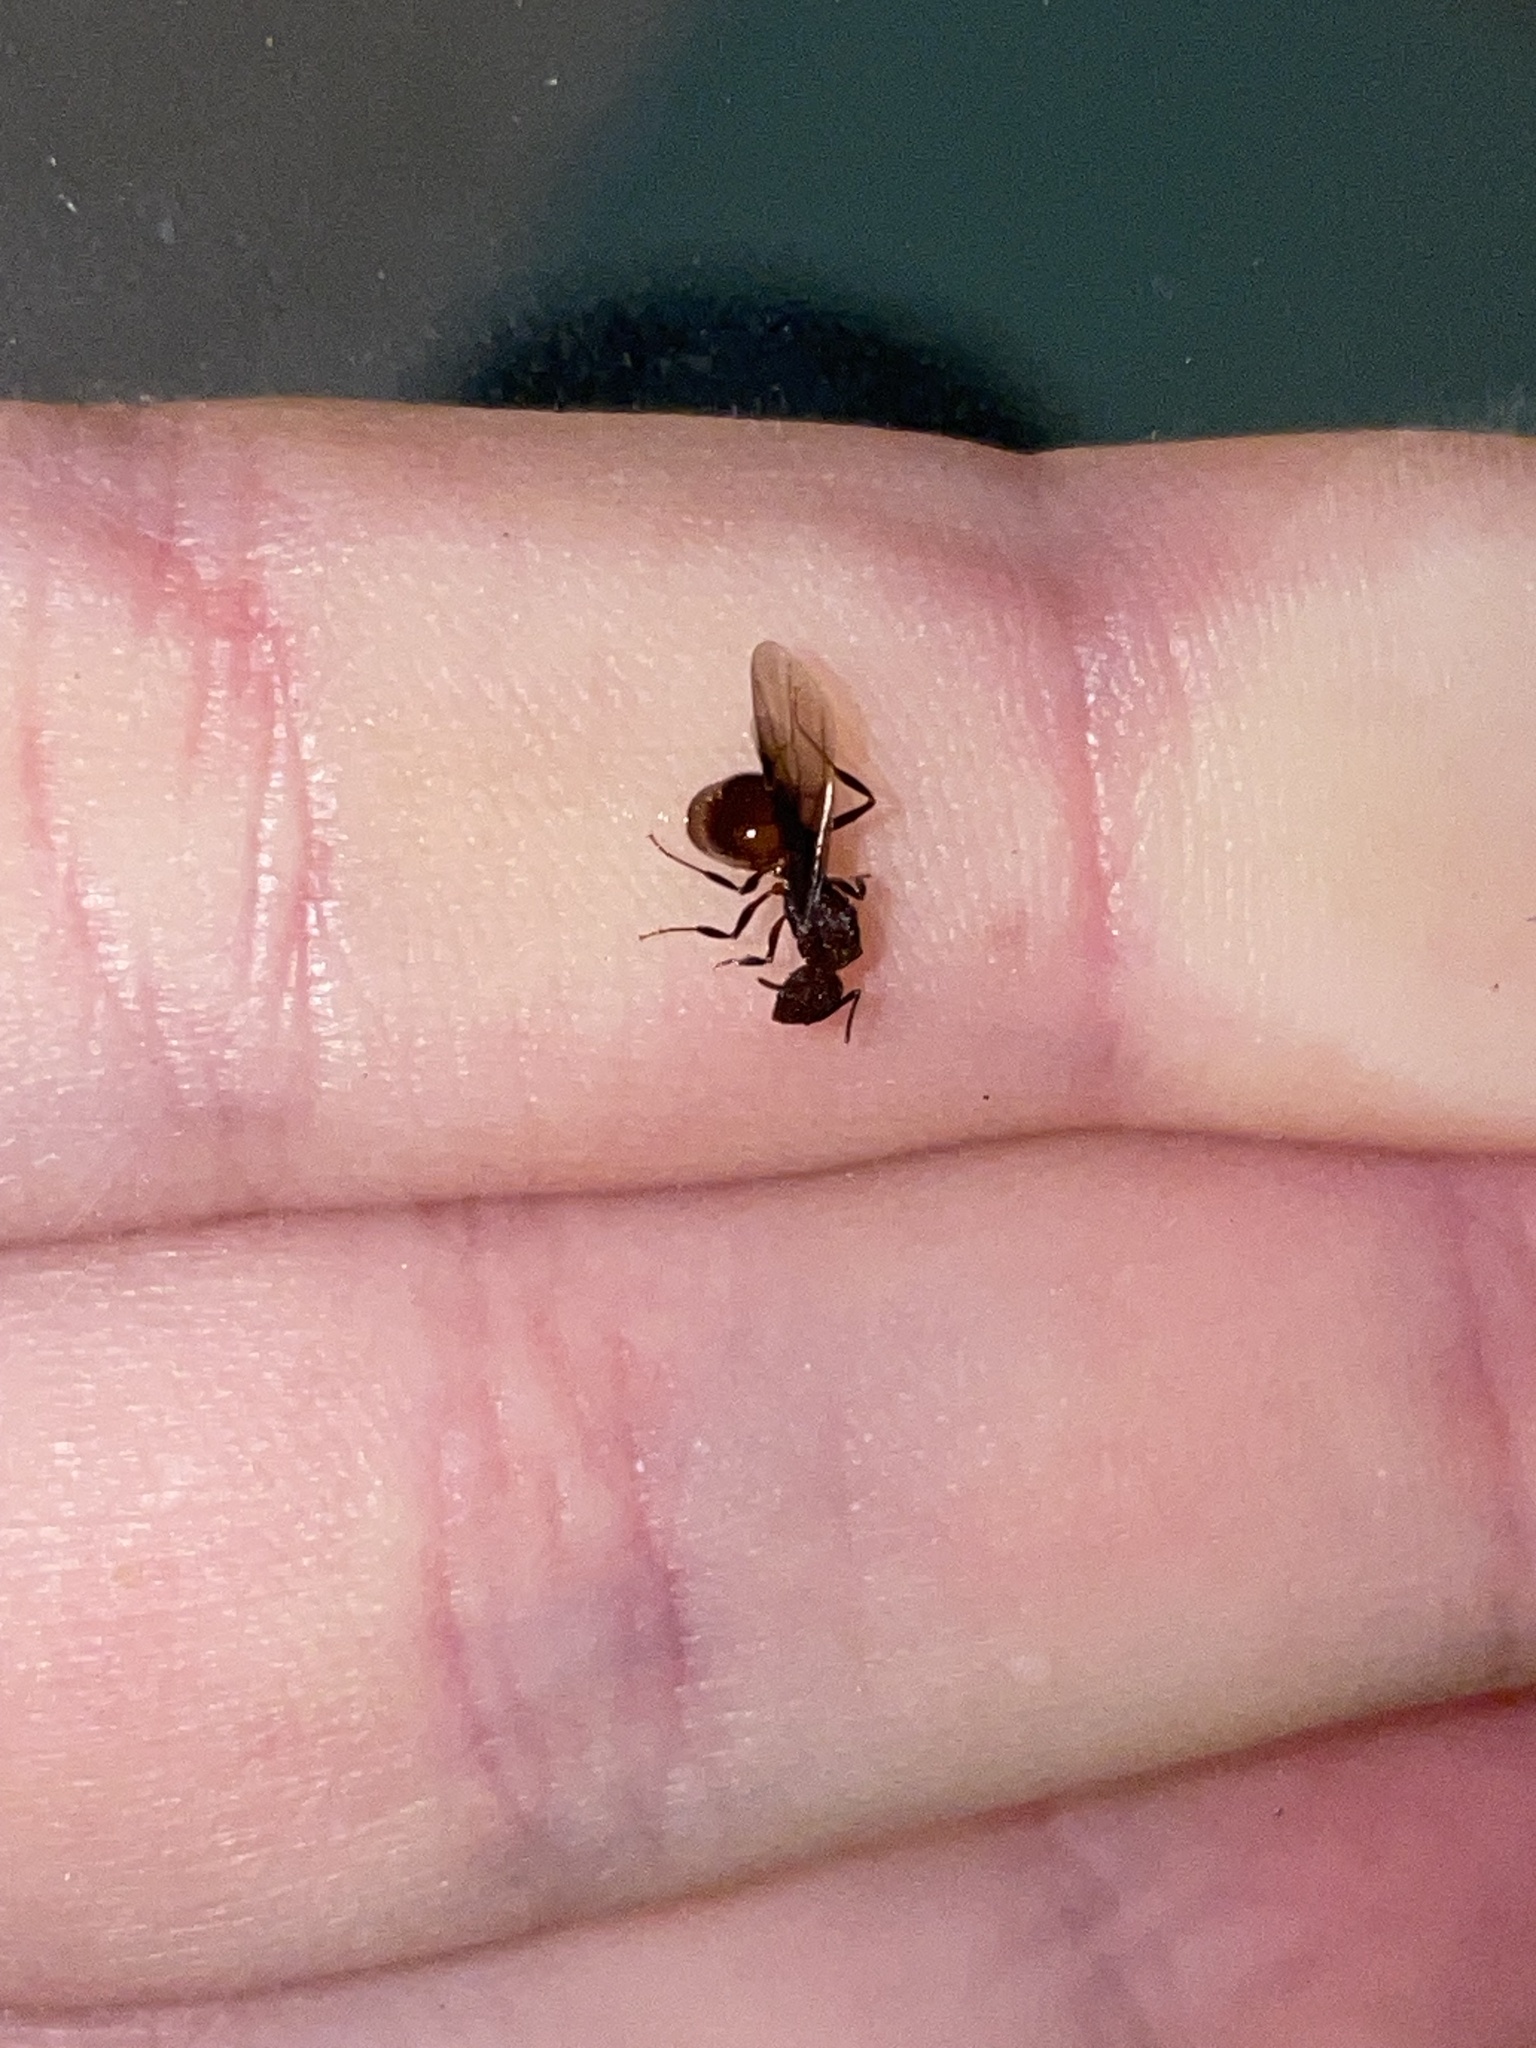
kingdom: Animalia
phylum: Arthropoda
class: Insecta
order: Hymenoptera
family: Formicidae
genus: Aphaenogaster
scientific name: Aphaenogaster fulva
